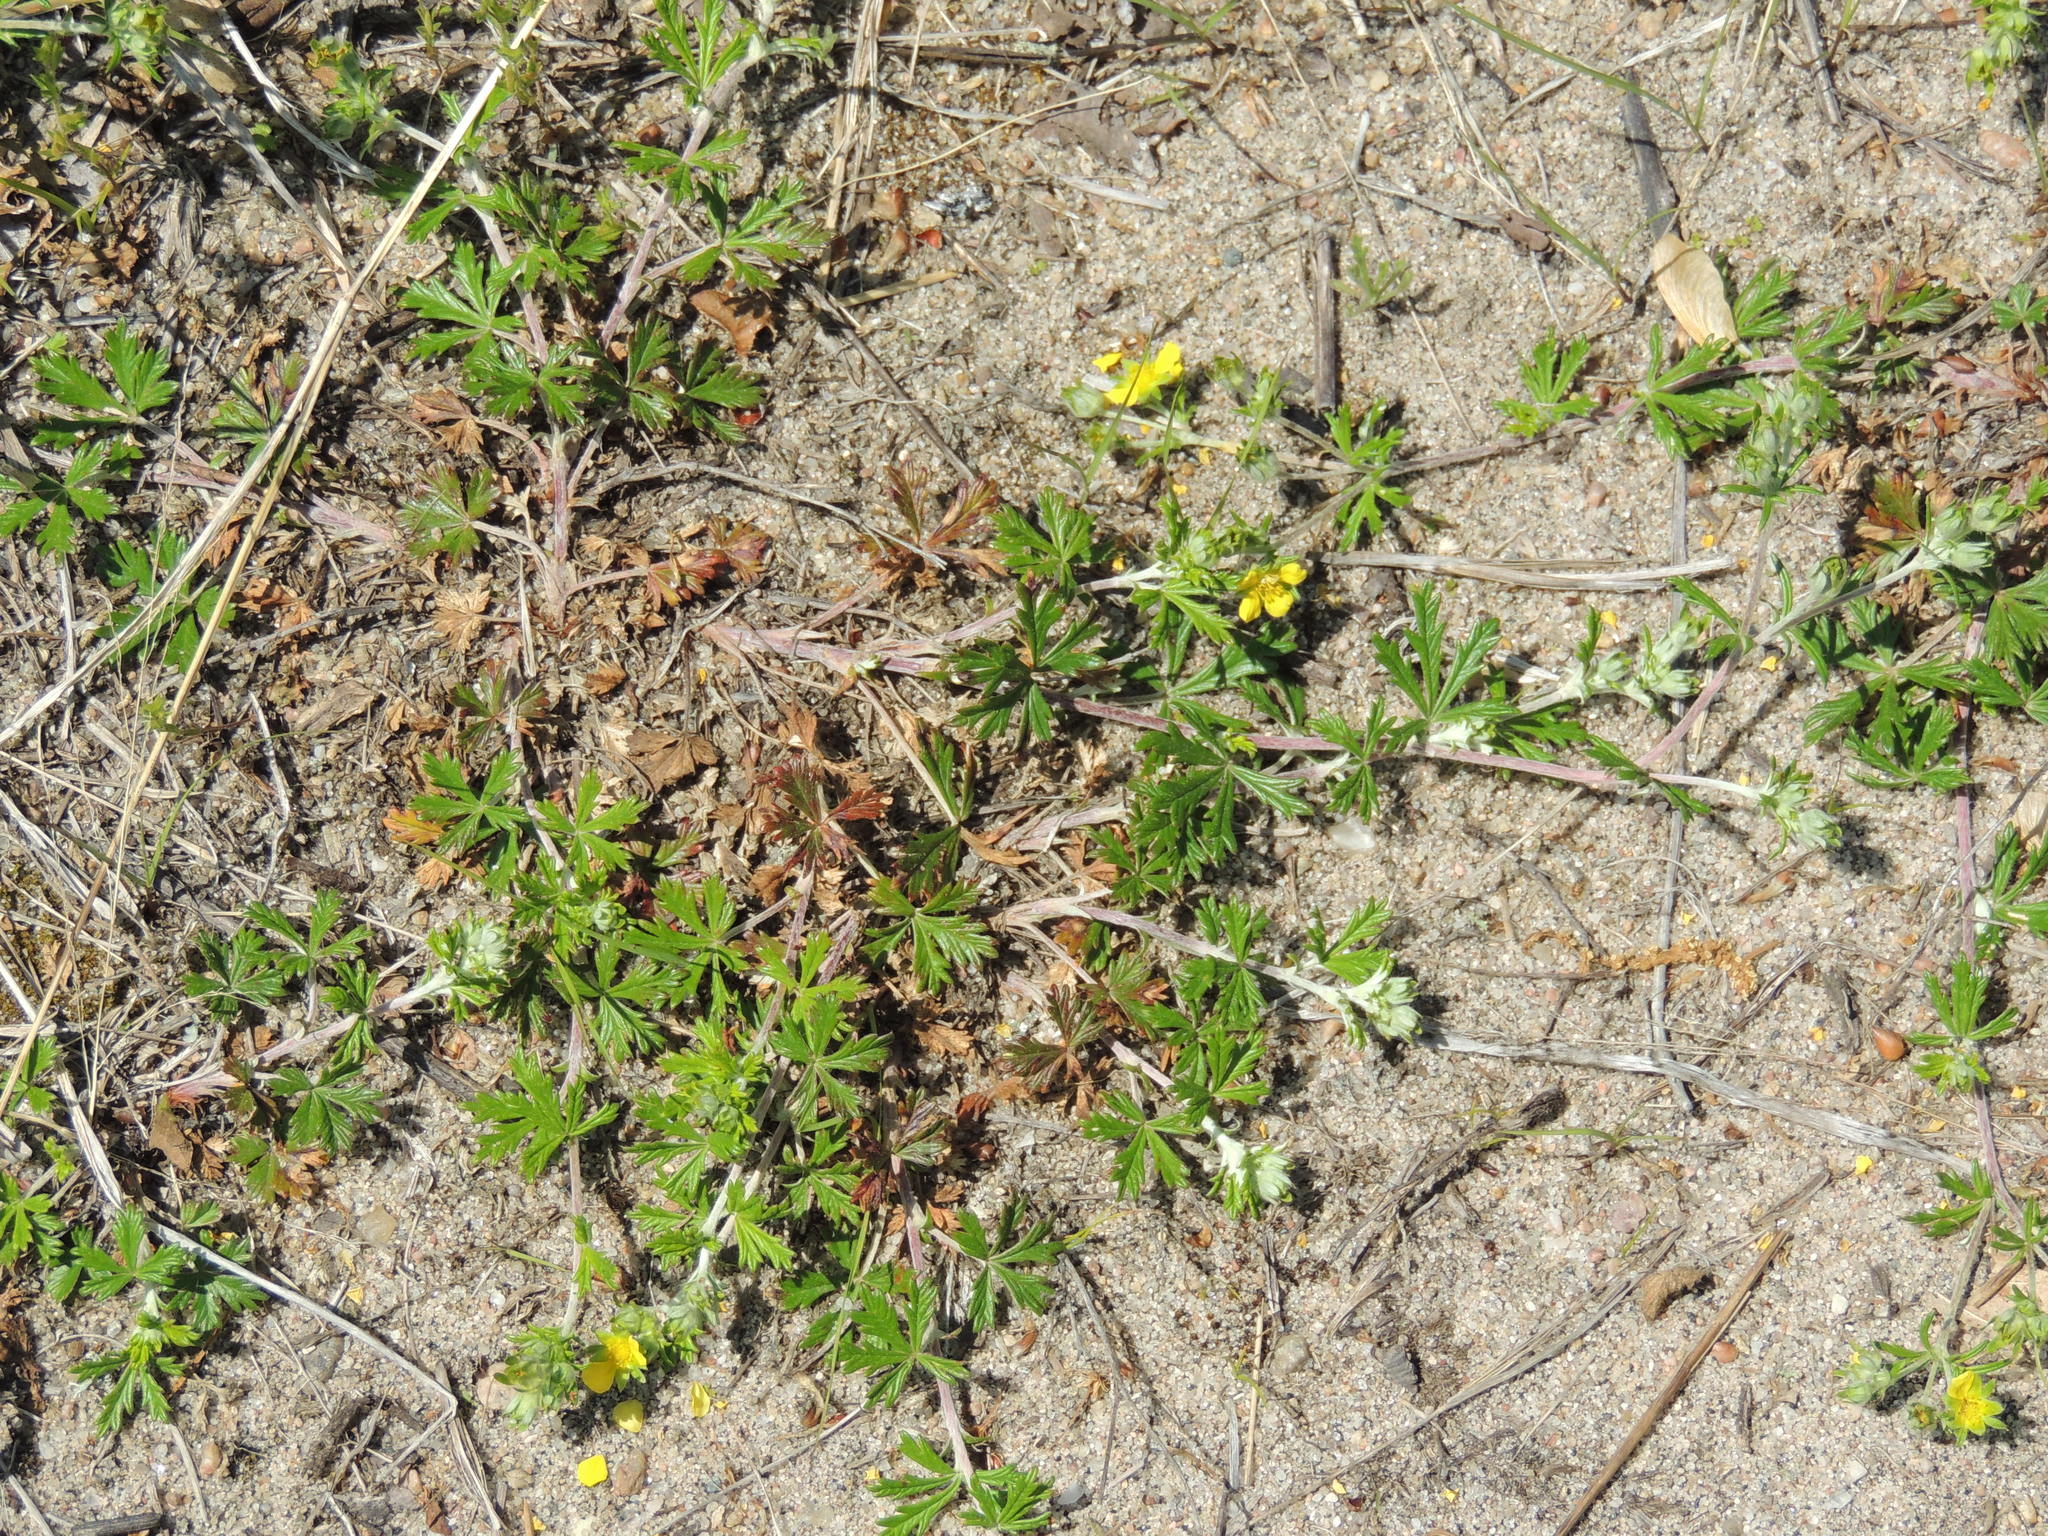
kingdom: Plantae
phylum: Tracheophyta
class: Magnoliopsida
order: Rosales
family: Rosaceae
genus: Potentilla
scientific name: Potentilla argentea
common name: Hoary cinquefoil
